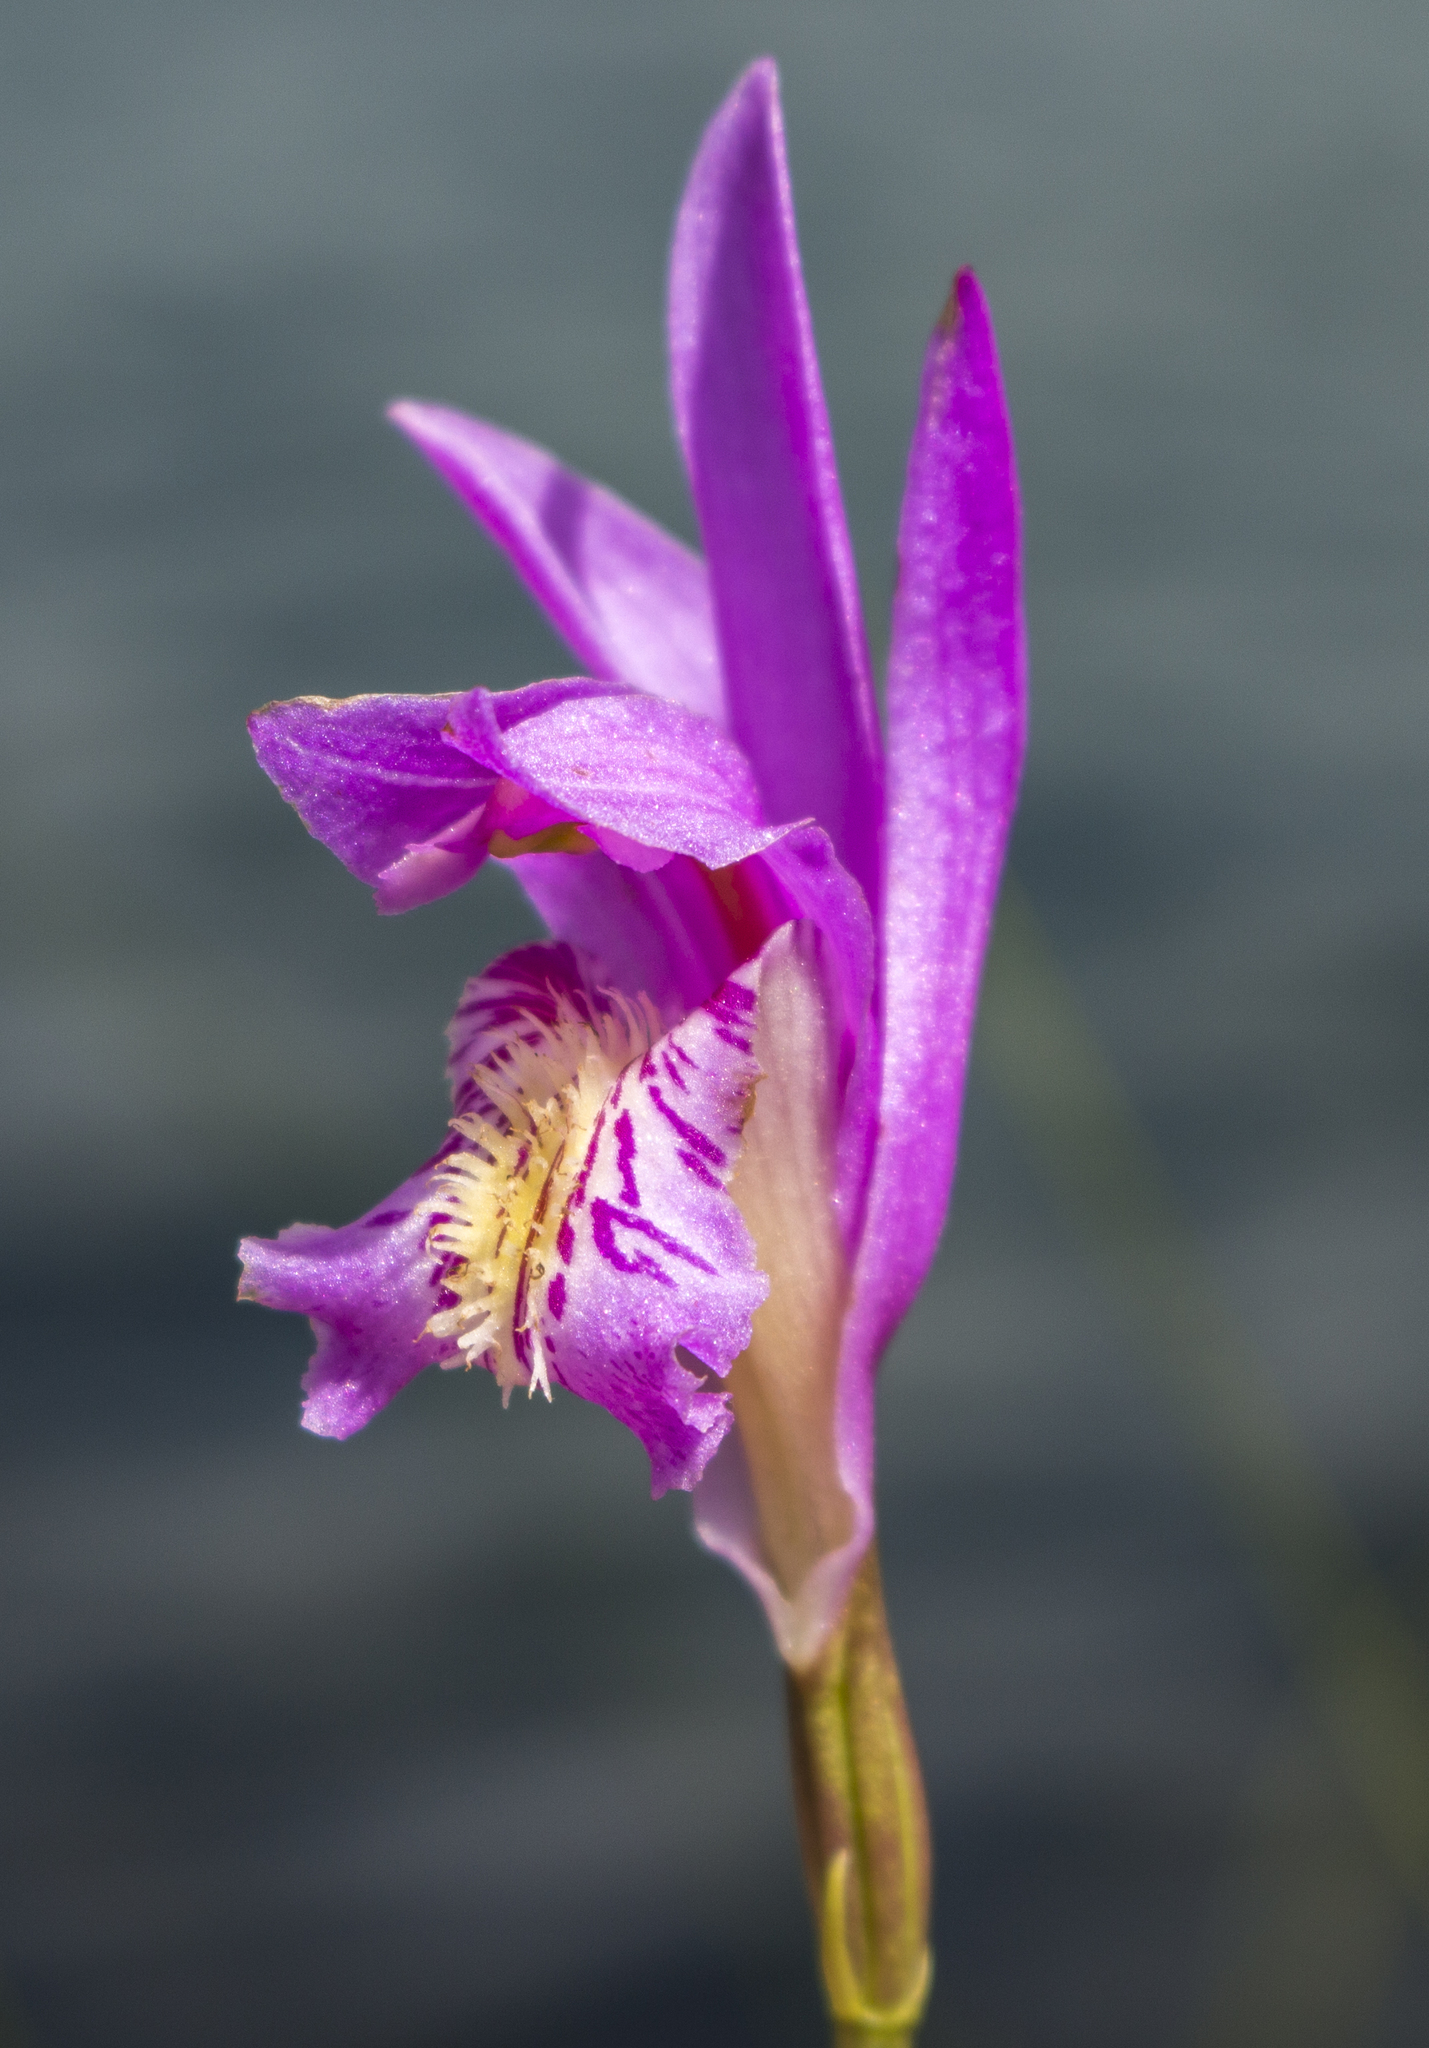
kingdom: Plantae
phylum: Tracheophyta
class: Liliopsida
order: Asparagales
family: Orchidaceae
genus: Arethusa
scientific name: Arethusa bulbosa
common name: Arethusa
